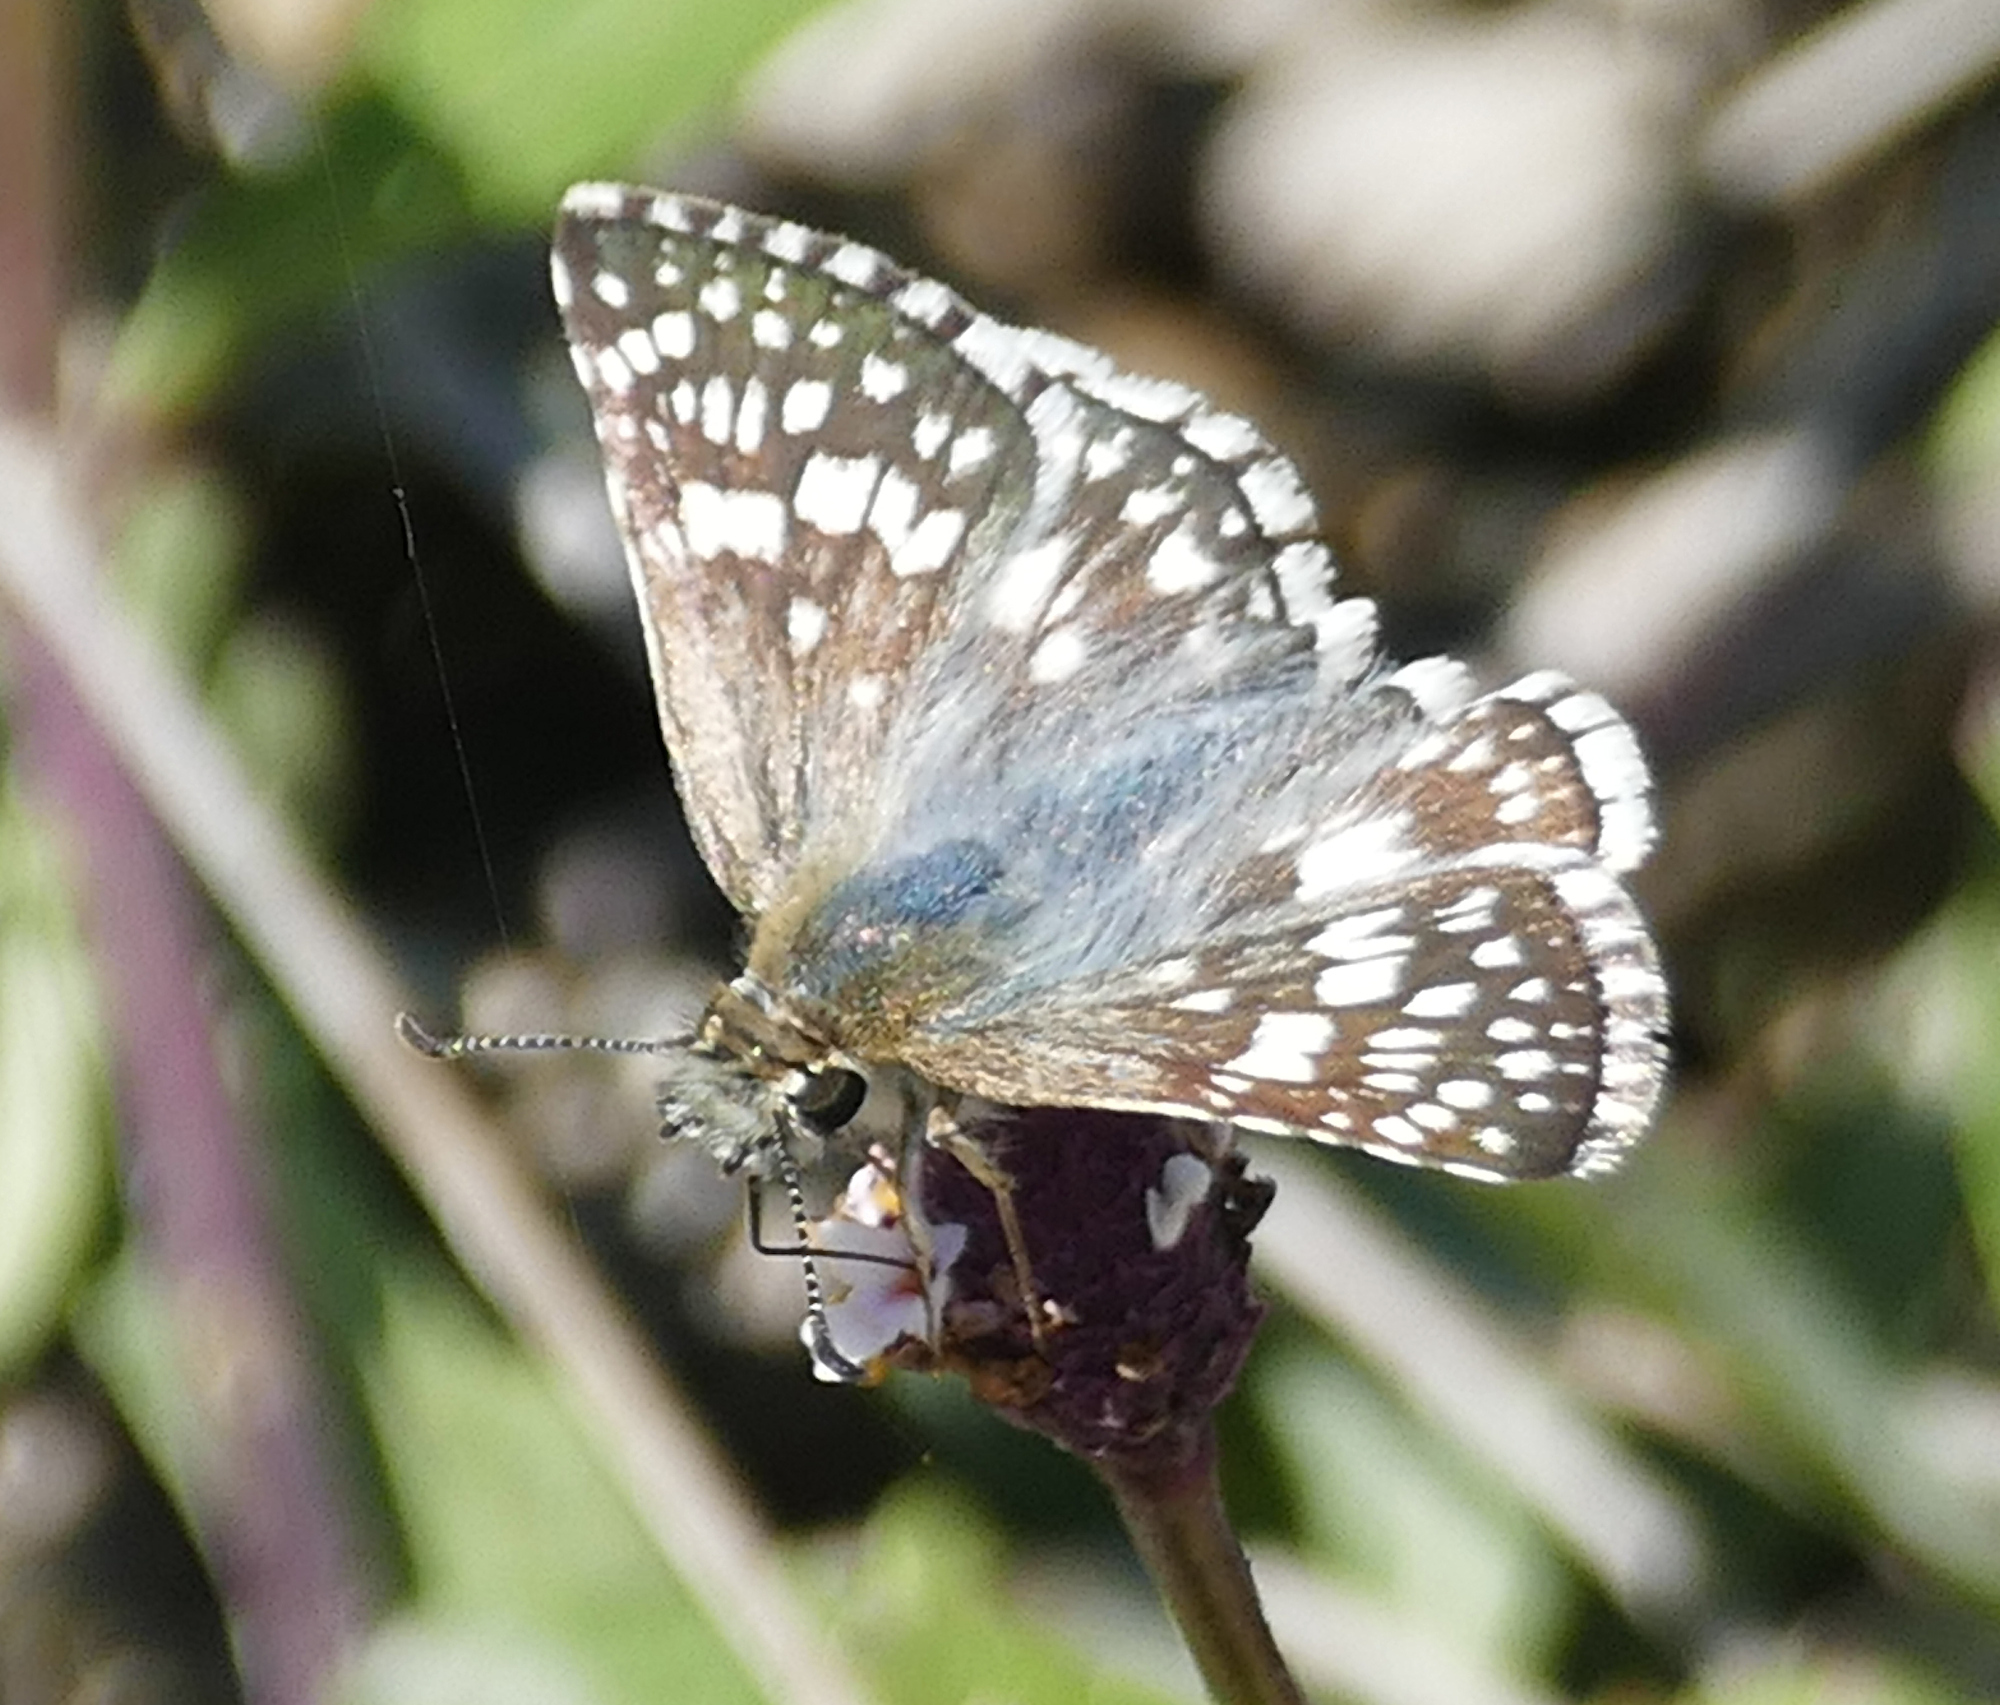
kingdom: Animalia
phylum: Arthropoda
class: Insecta
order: Lepidoptera
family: Hesperiidae
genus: Pyrgus
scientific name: Pyrgus oileus
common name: Tropical checkered-skipper
